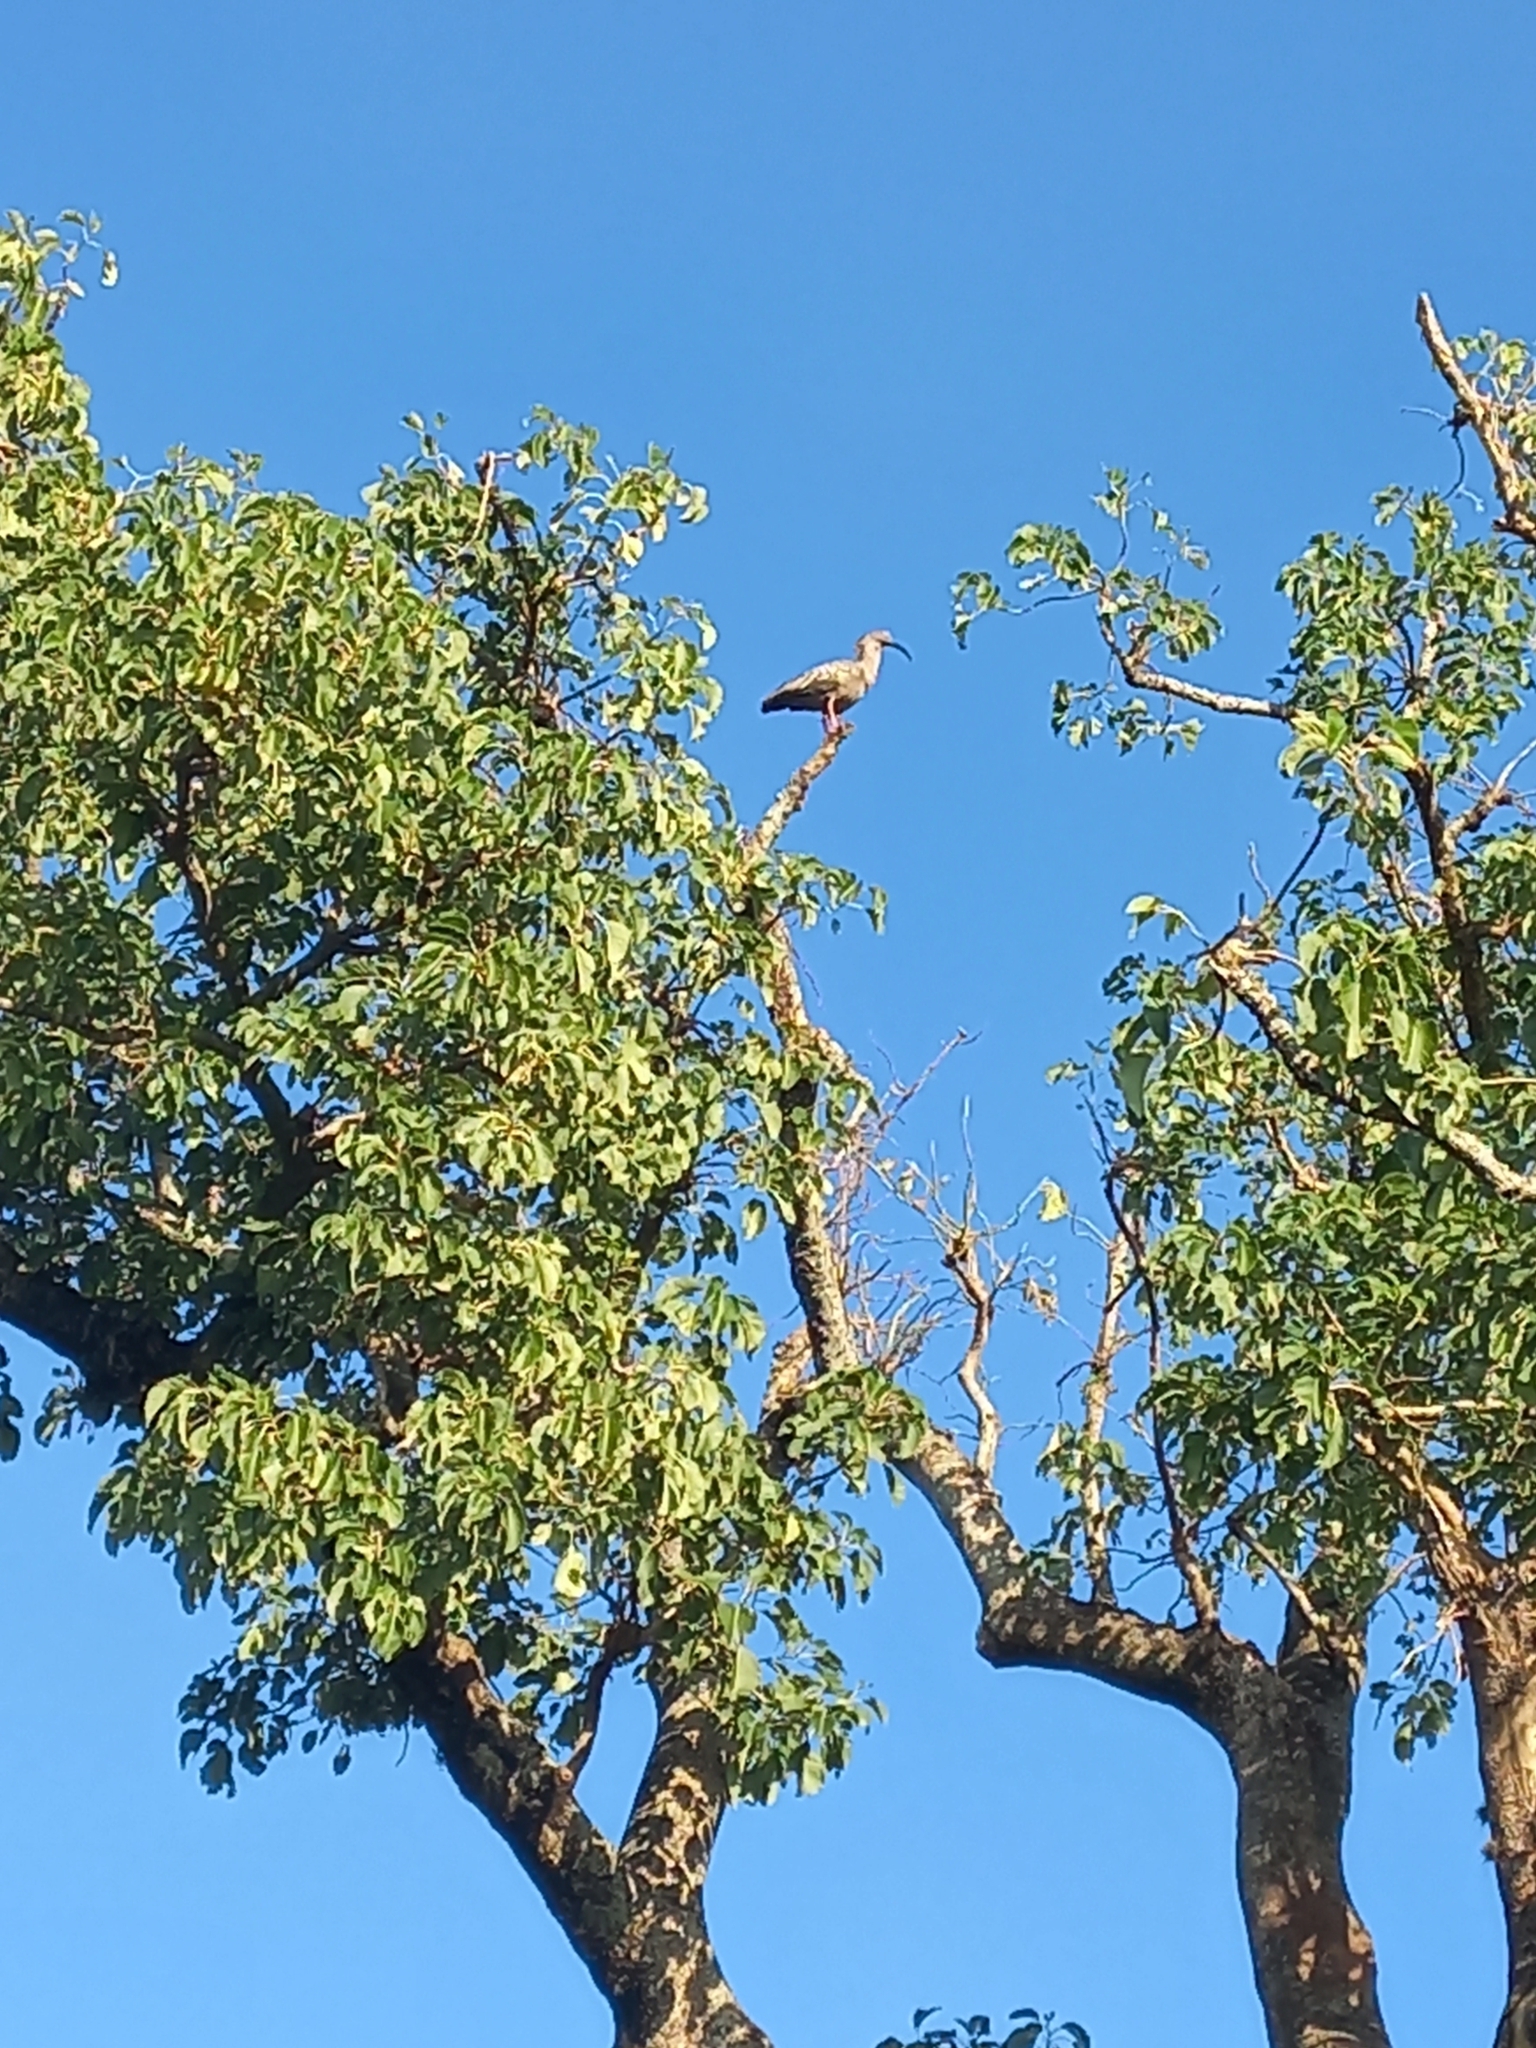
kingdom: Animalia
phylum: Chordata
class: Aves
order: Pelecaniformes
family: Threskiornithidae
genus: Theristicus
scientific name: Theristicus caerulescens
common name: Plumbeous ibis
